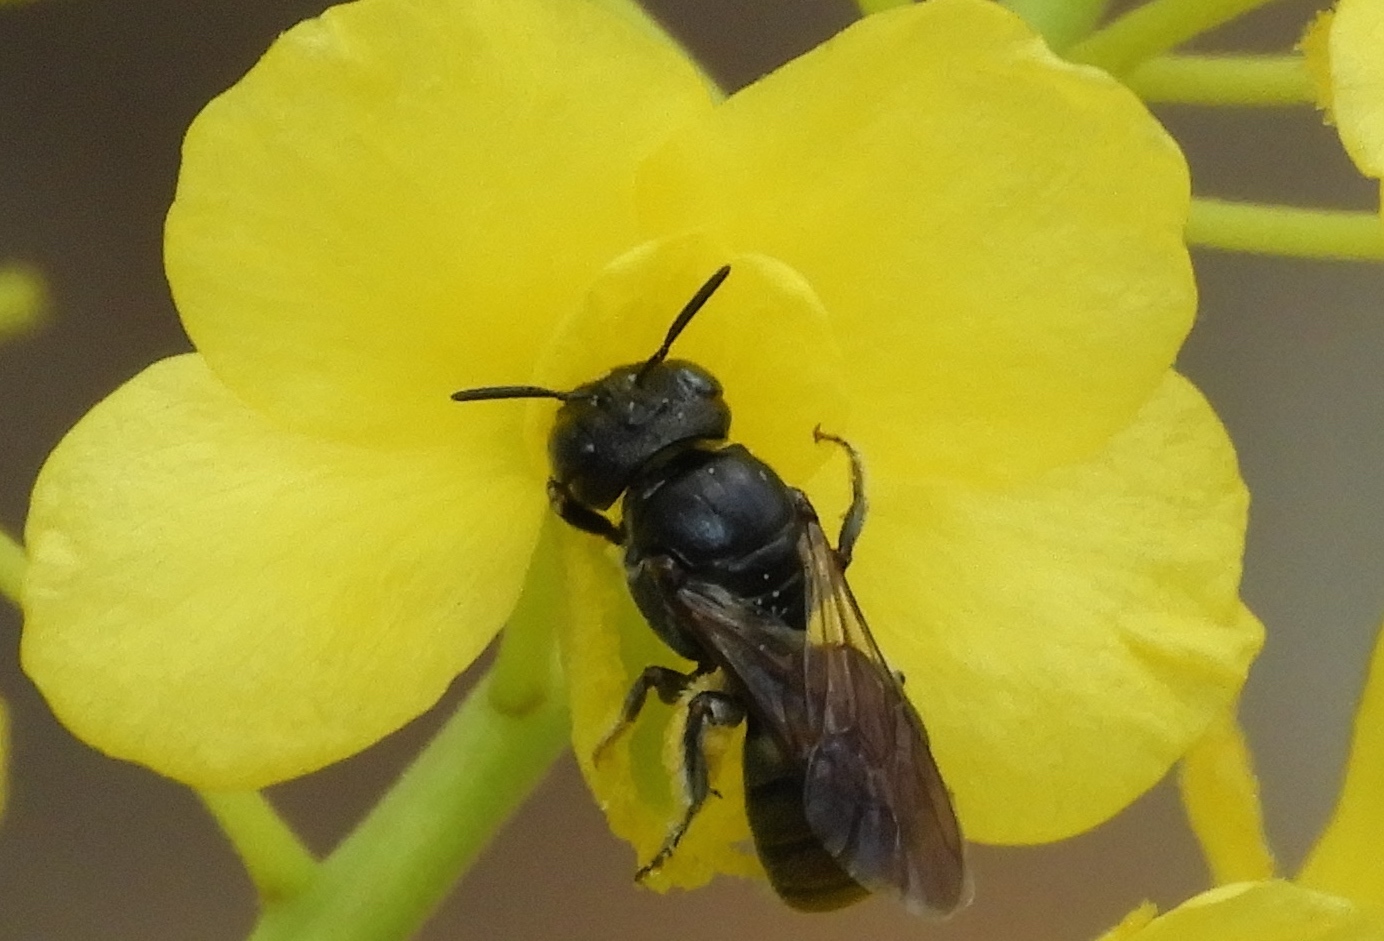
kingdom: Animalia
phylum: Arthropoda
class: Insecta
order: Hymenoptera
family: Apidae
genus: Ceratina
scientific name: Ceratina
